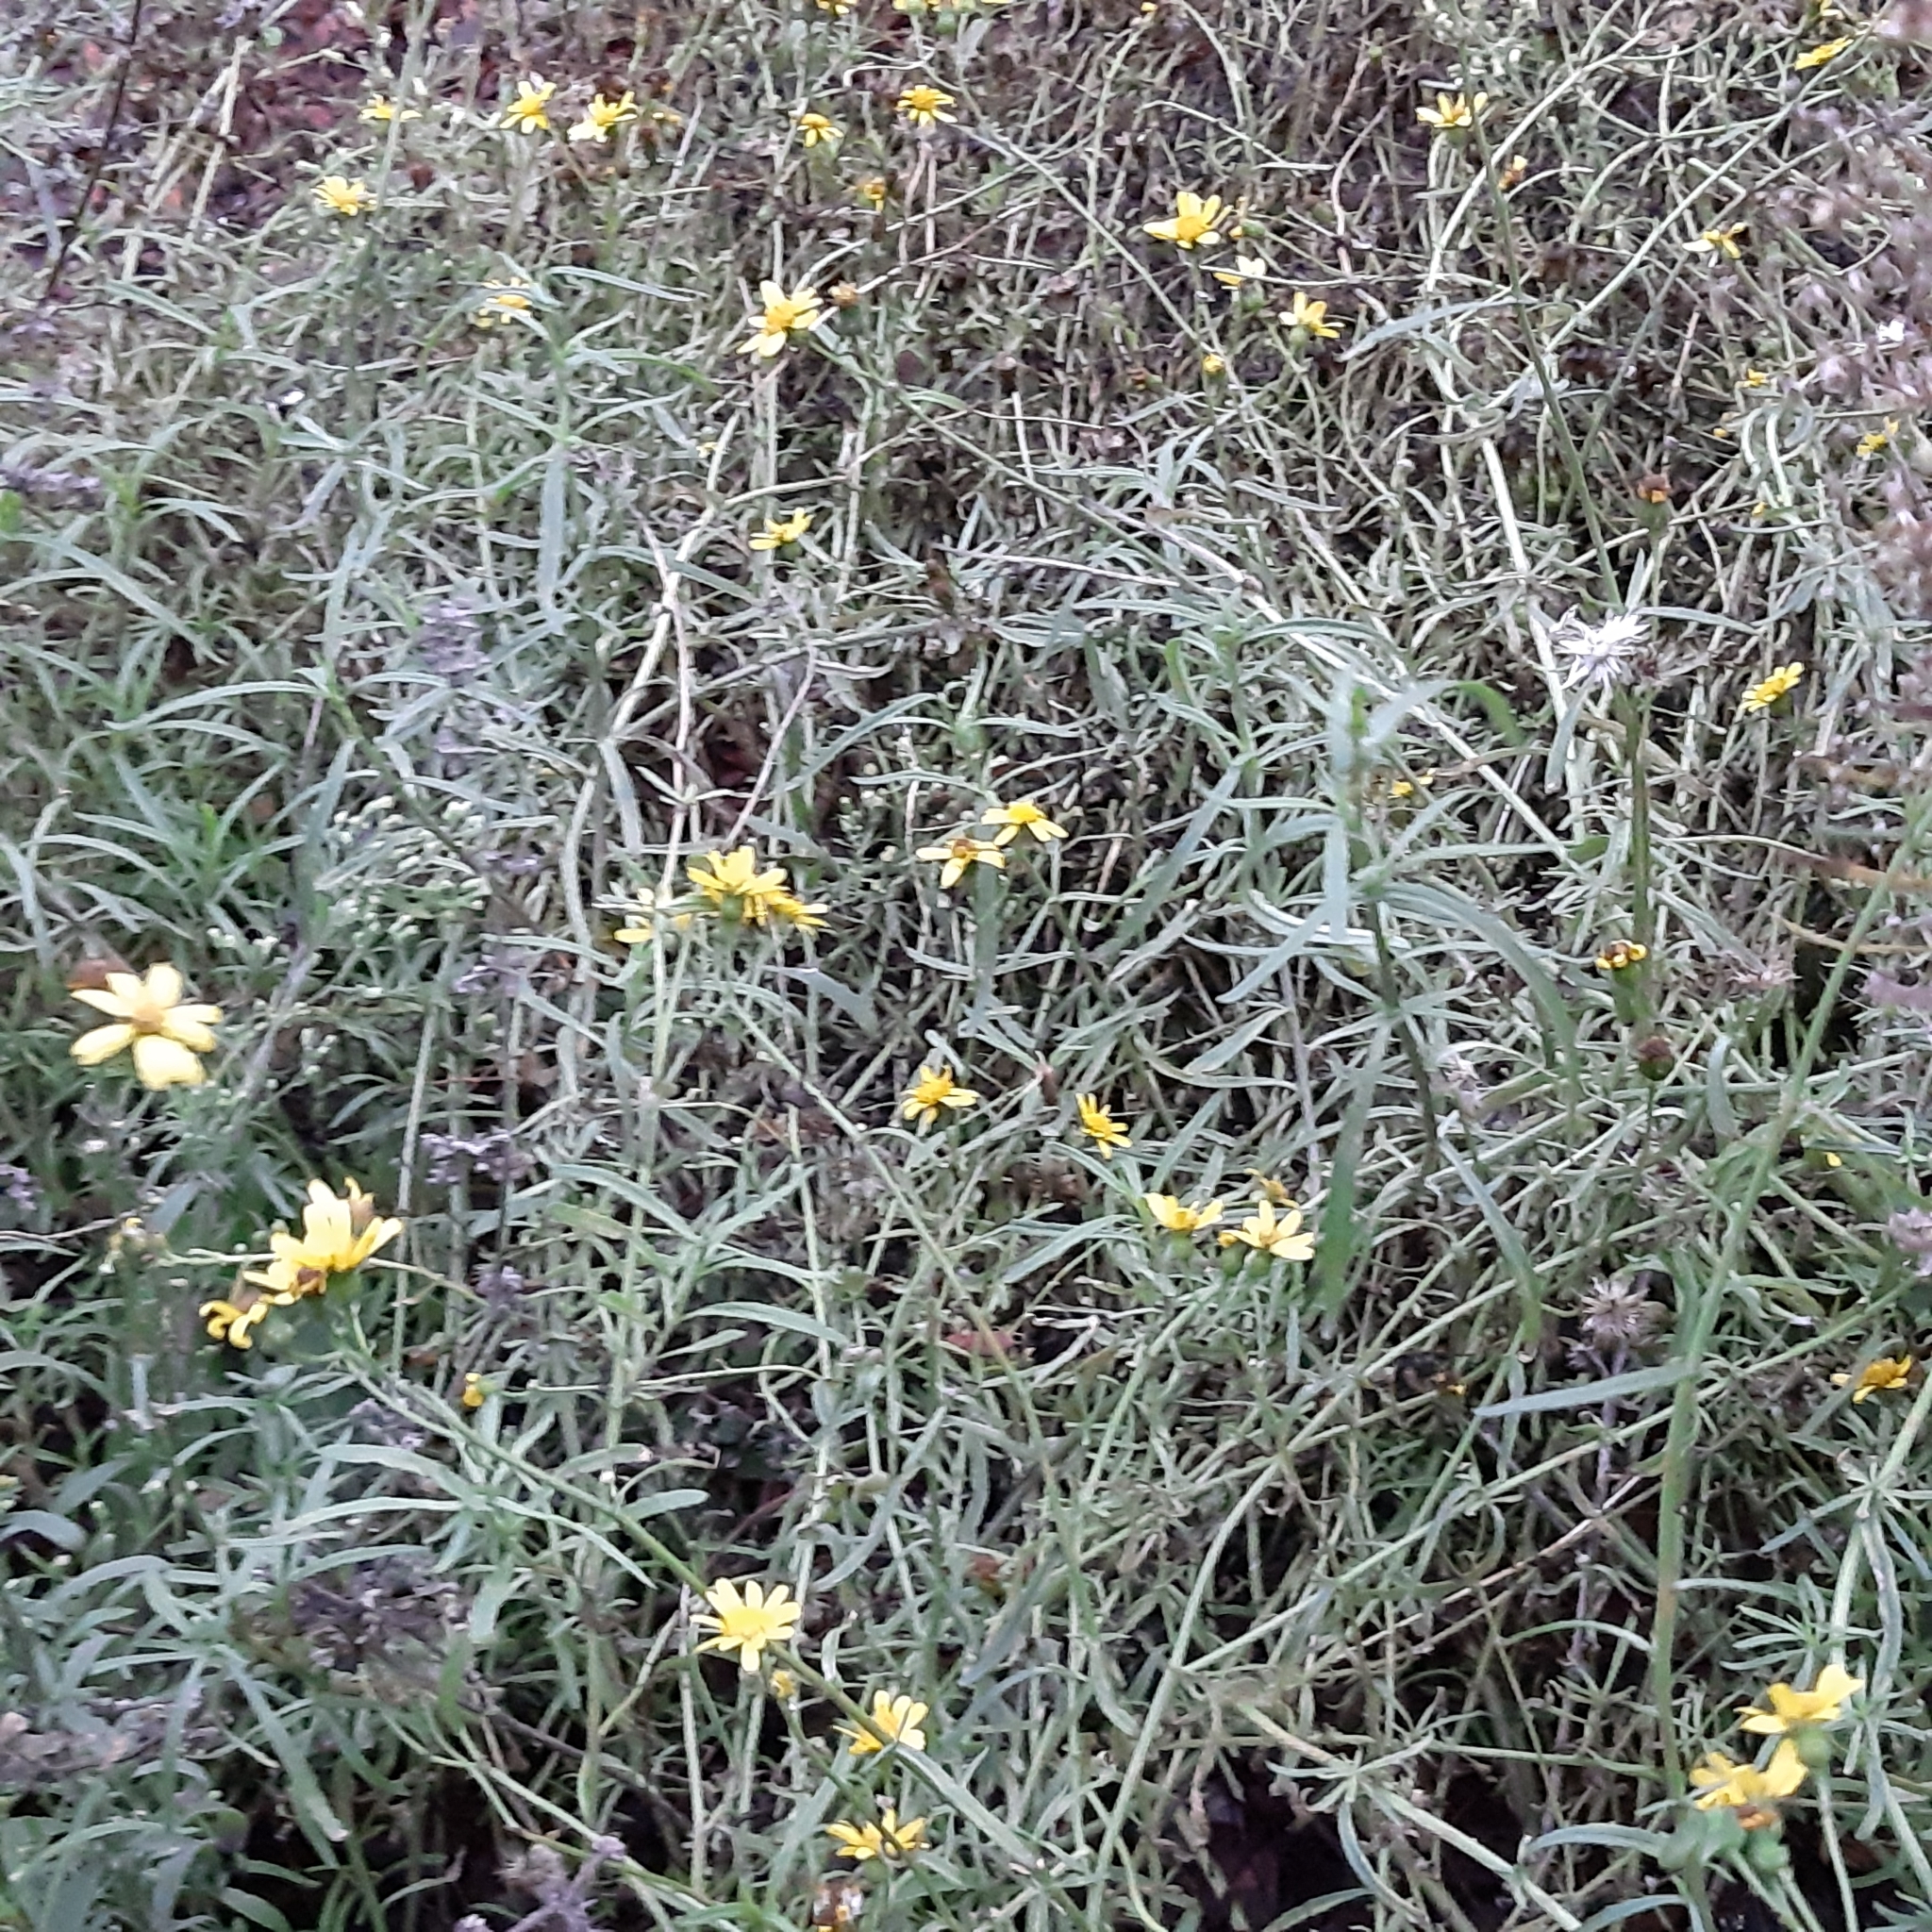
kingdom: Plantae
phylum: Tracheophyta
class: Magnoliopsida
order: Asterales
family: Asteraceae
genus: Senecio
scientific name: Senecio inaequidens
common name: Narrow-leaved ragwort
